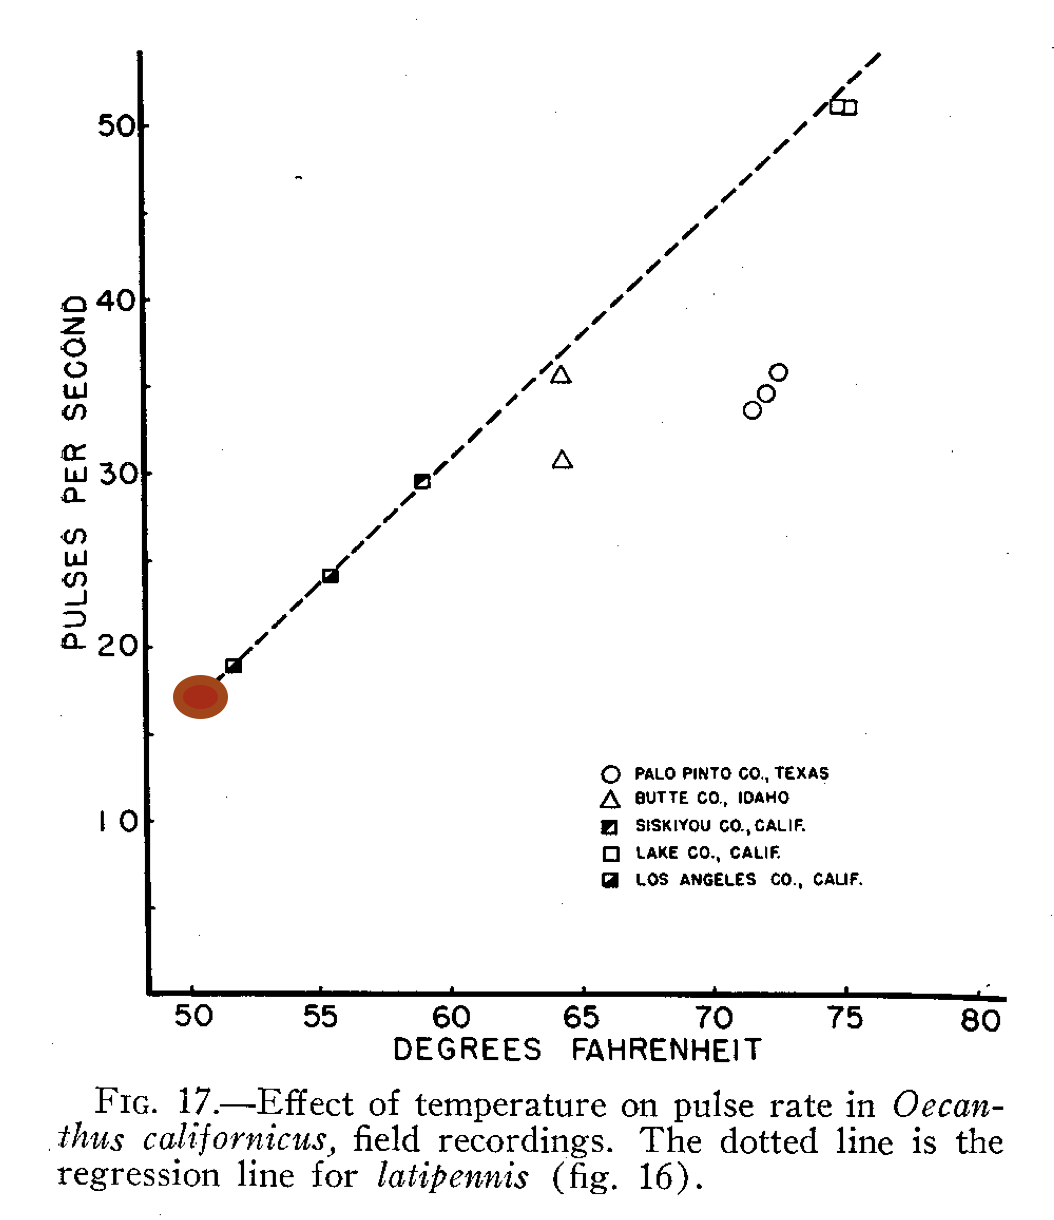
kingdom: Animalia
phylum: Arthropoda
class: Insecta
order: Orthoptera
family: Gryllidae
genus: Oecanthus
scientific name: Oecanthus californicus
